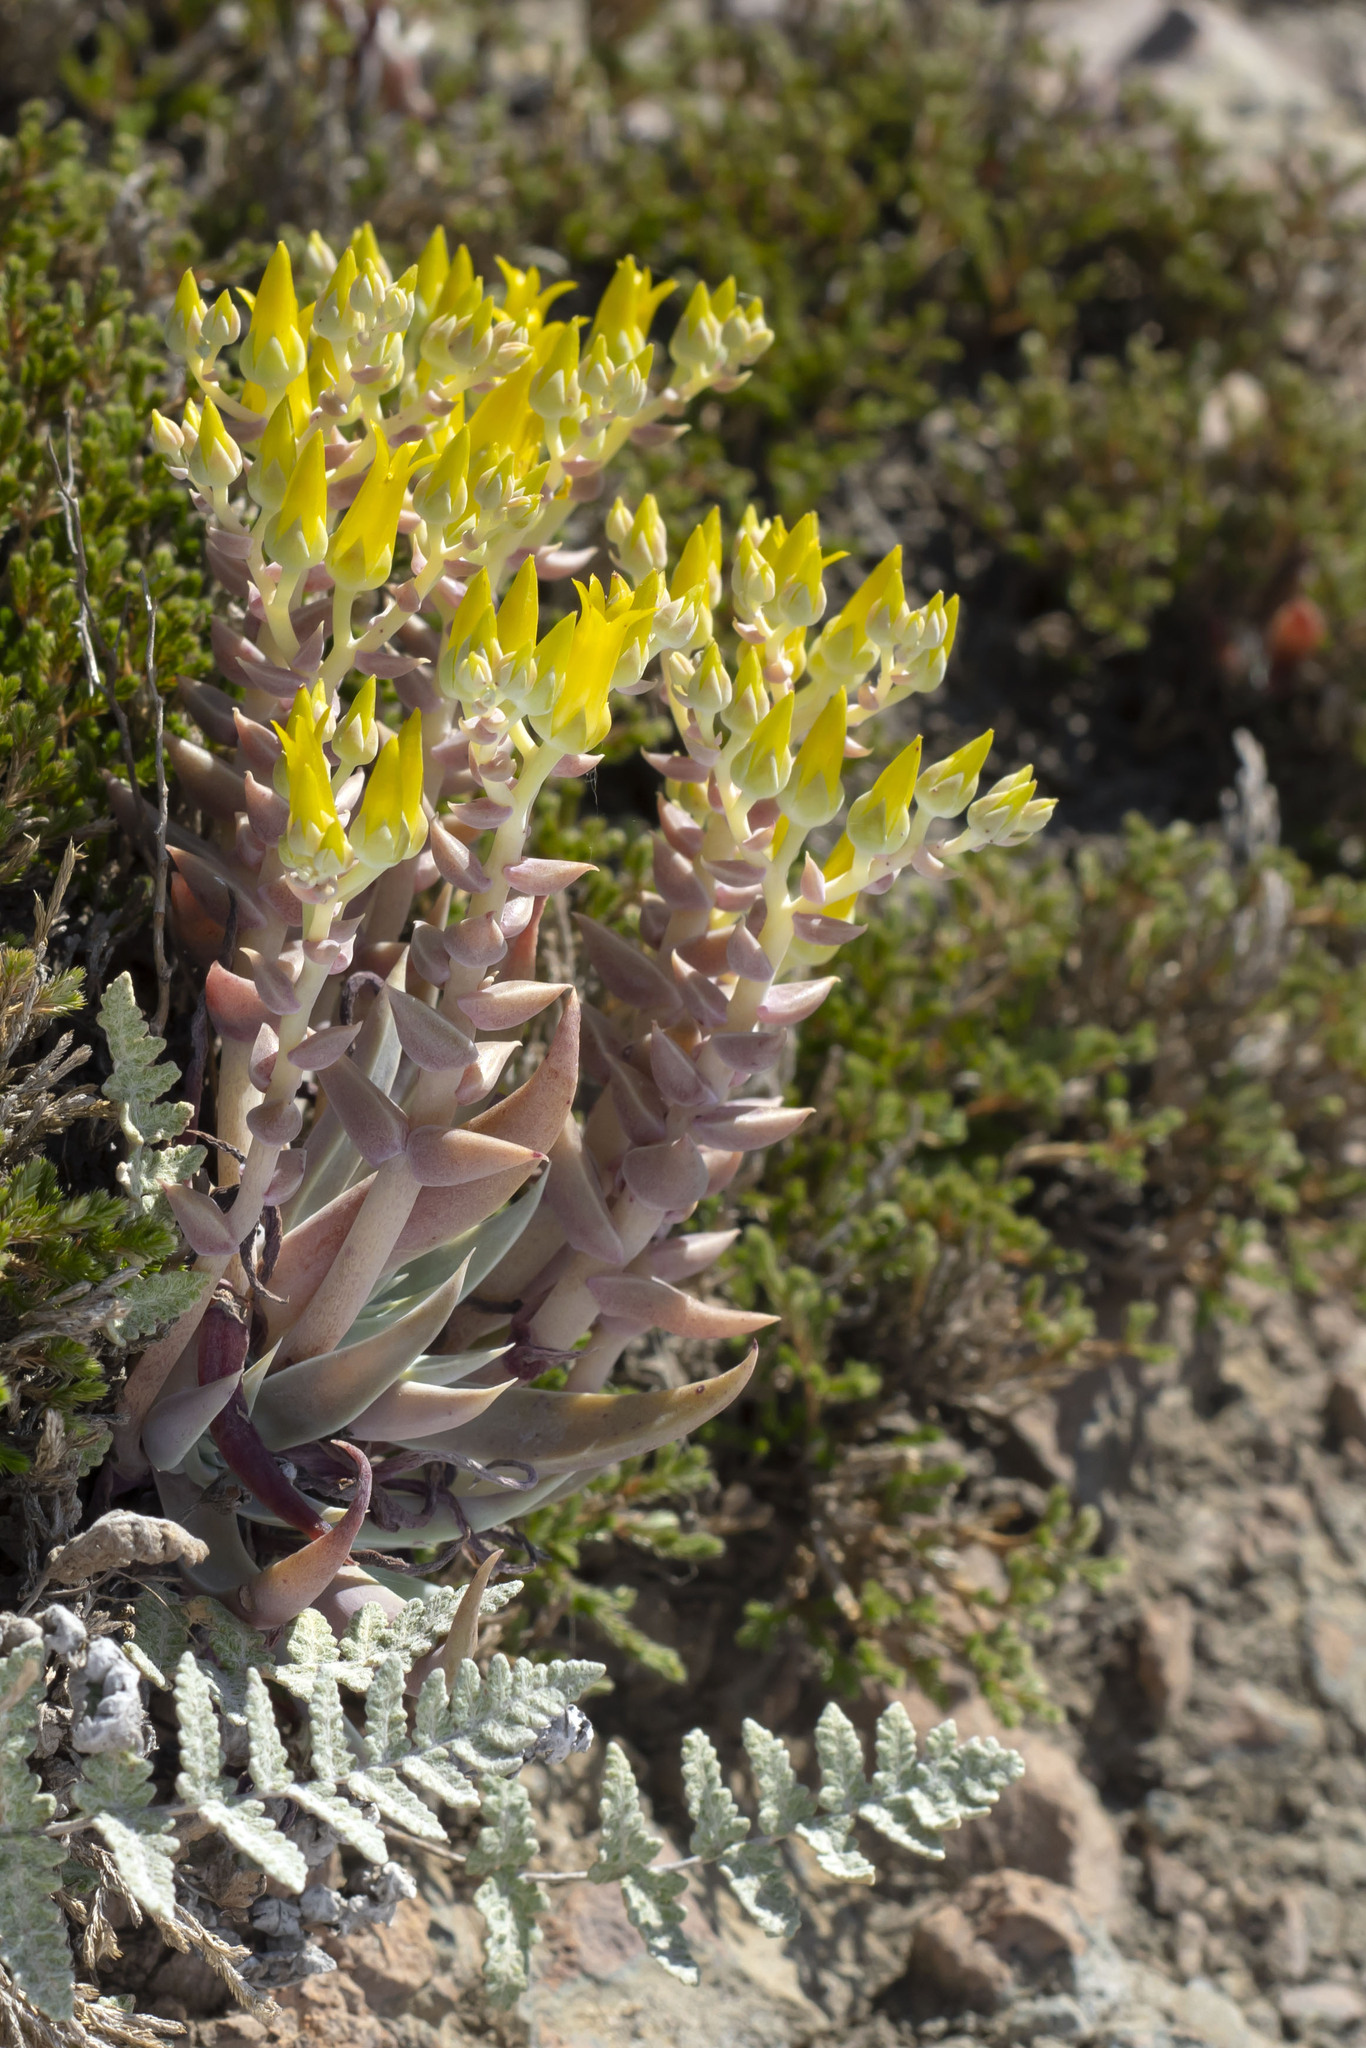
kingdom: Plantae
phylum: Tracheophyta
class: Magnoliopsida
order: Saxifragales
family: Crassulaceae
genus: Dudleya
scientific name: Dudleya verityi
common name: Verity dudleya
